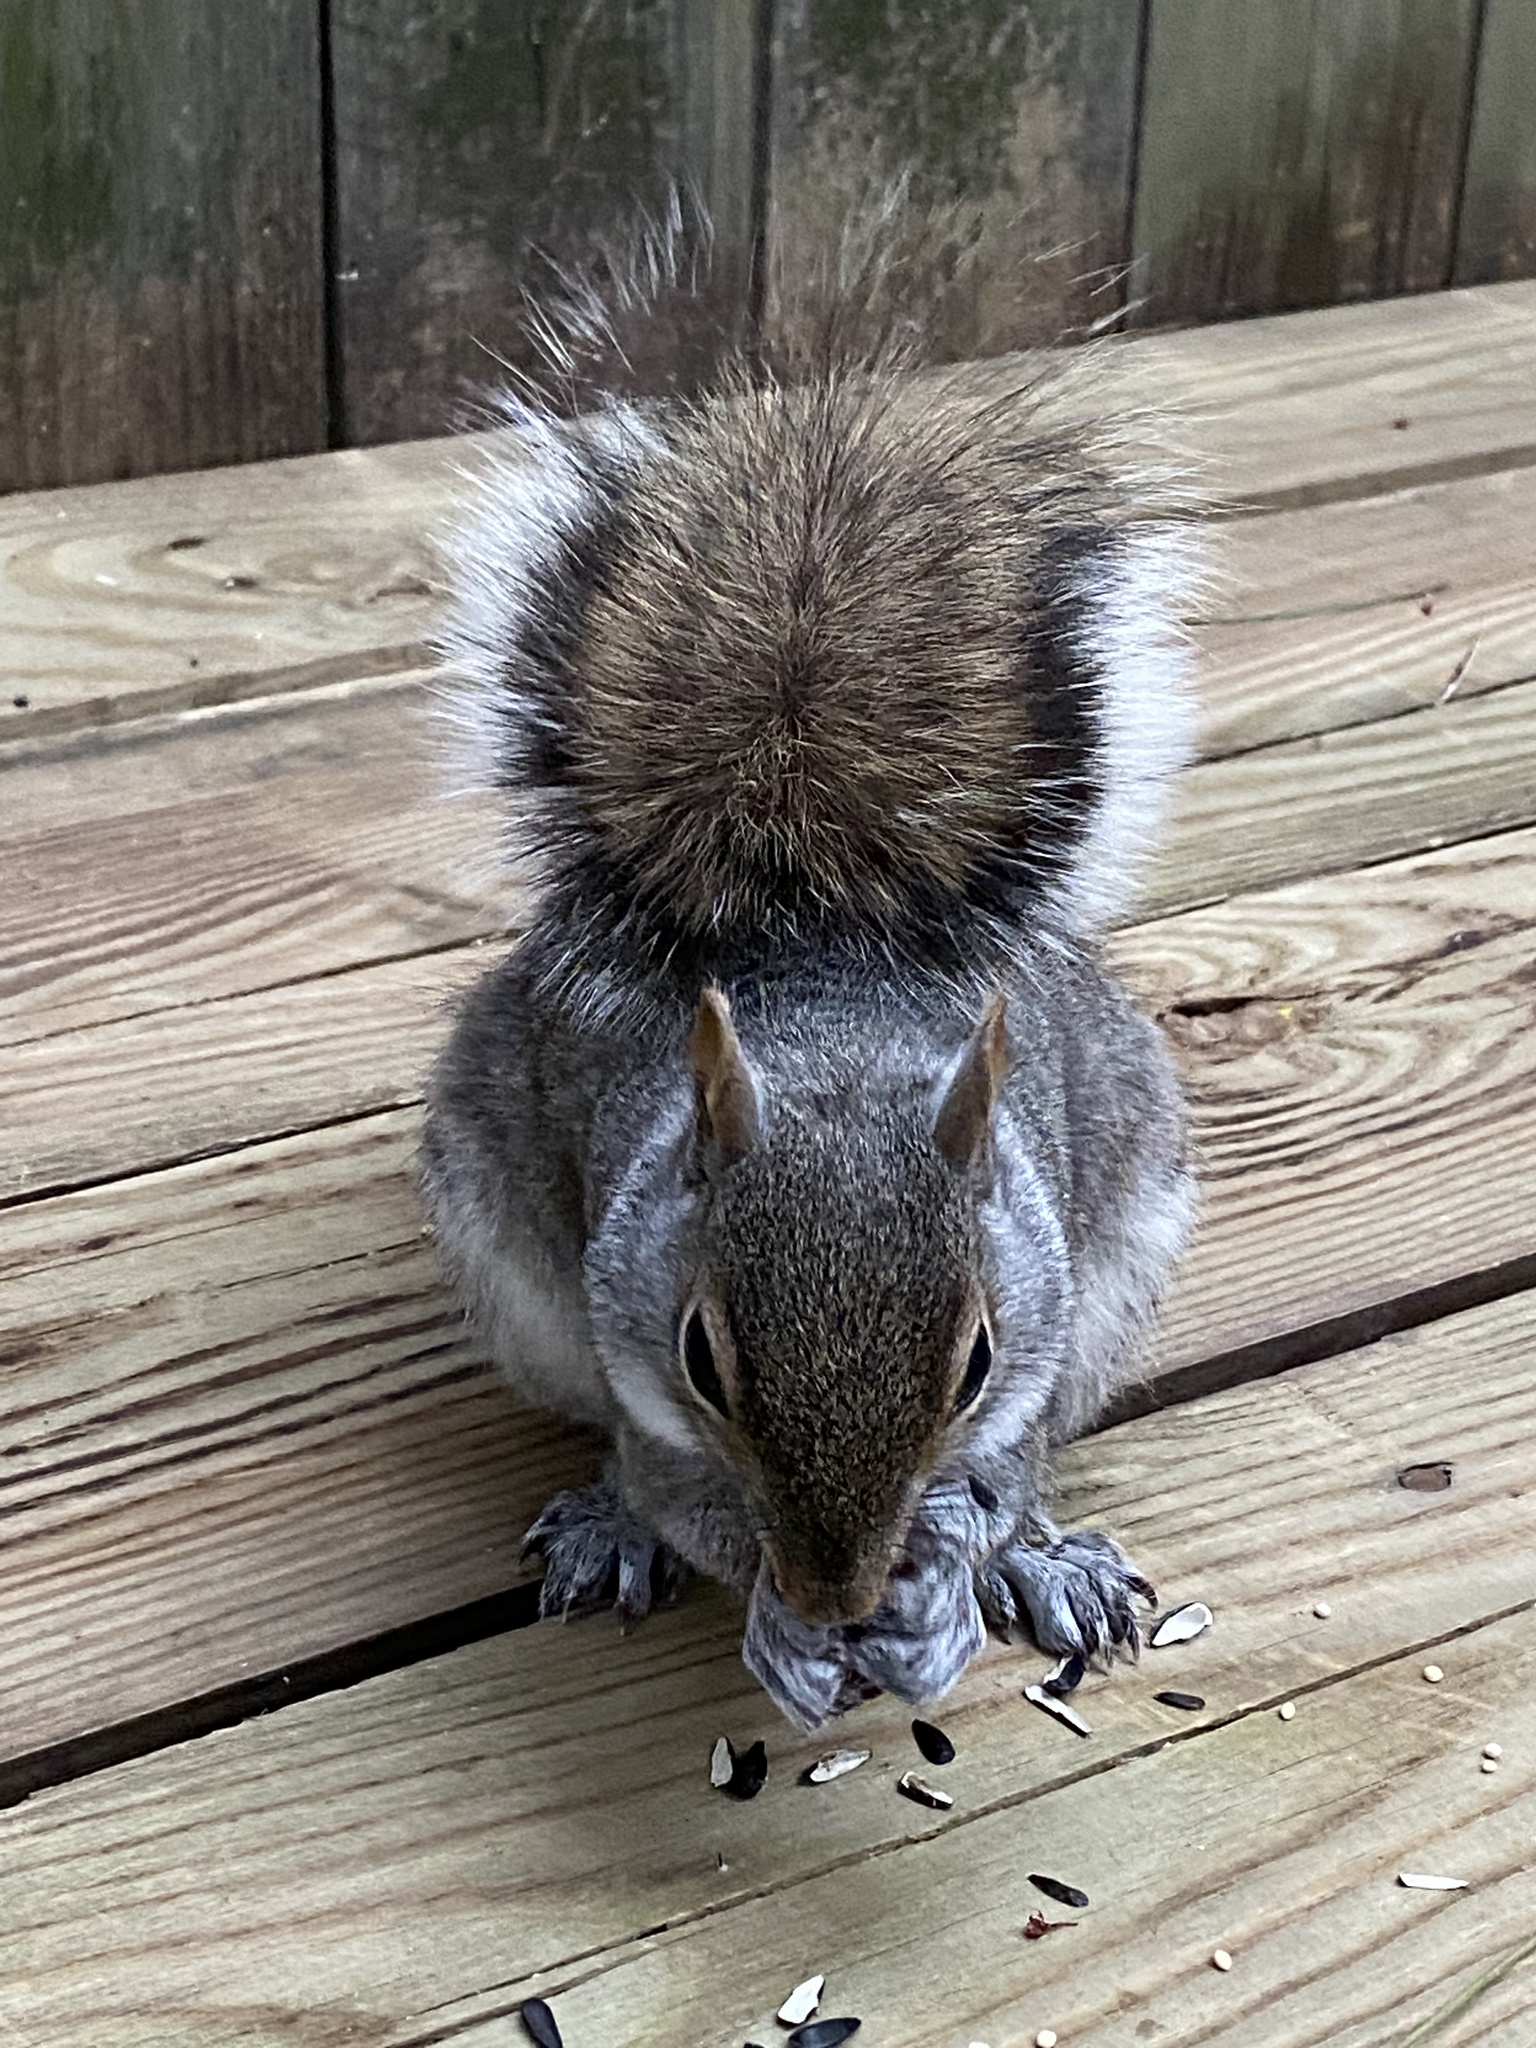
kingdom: Animalia
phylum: Chordata
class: Mammalia
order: Rodentia
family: Sciuridae
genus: Sciurus
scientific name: Sciurus carolinensis
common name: Eastern gray squirrel
